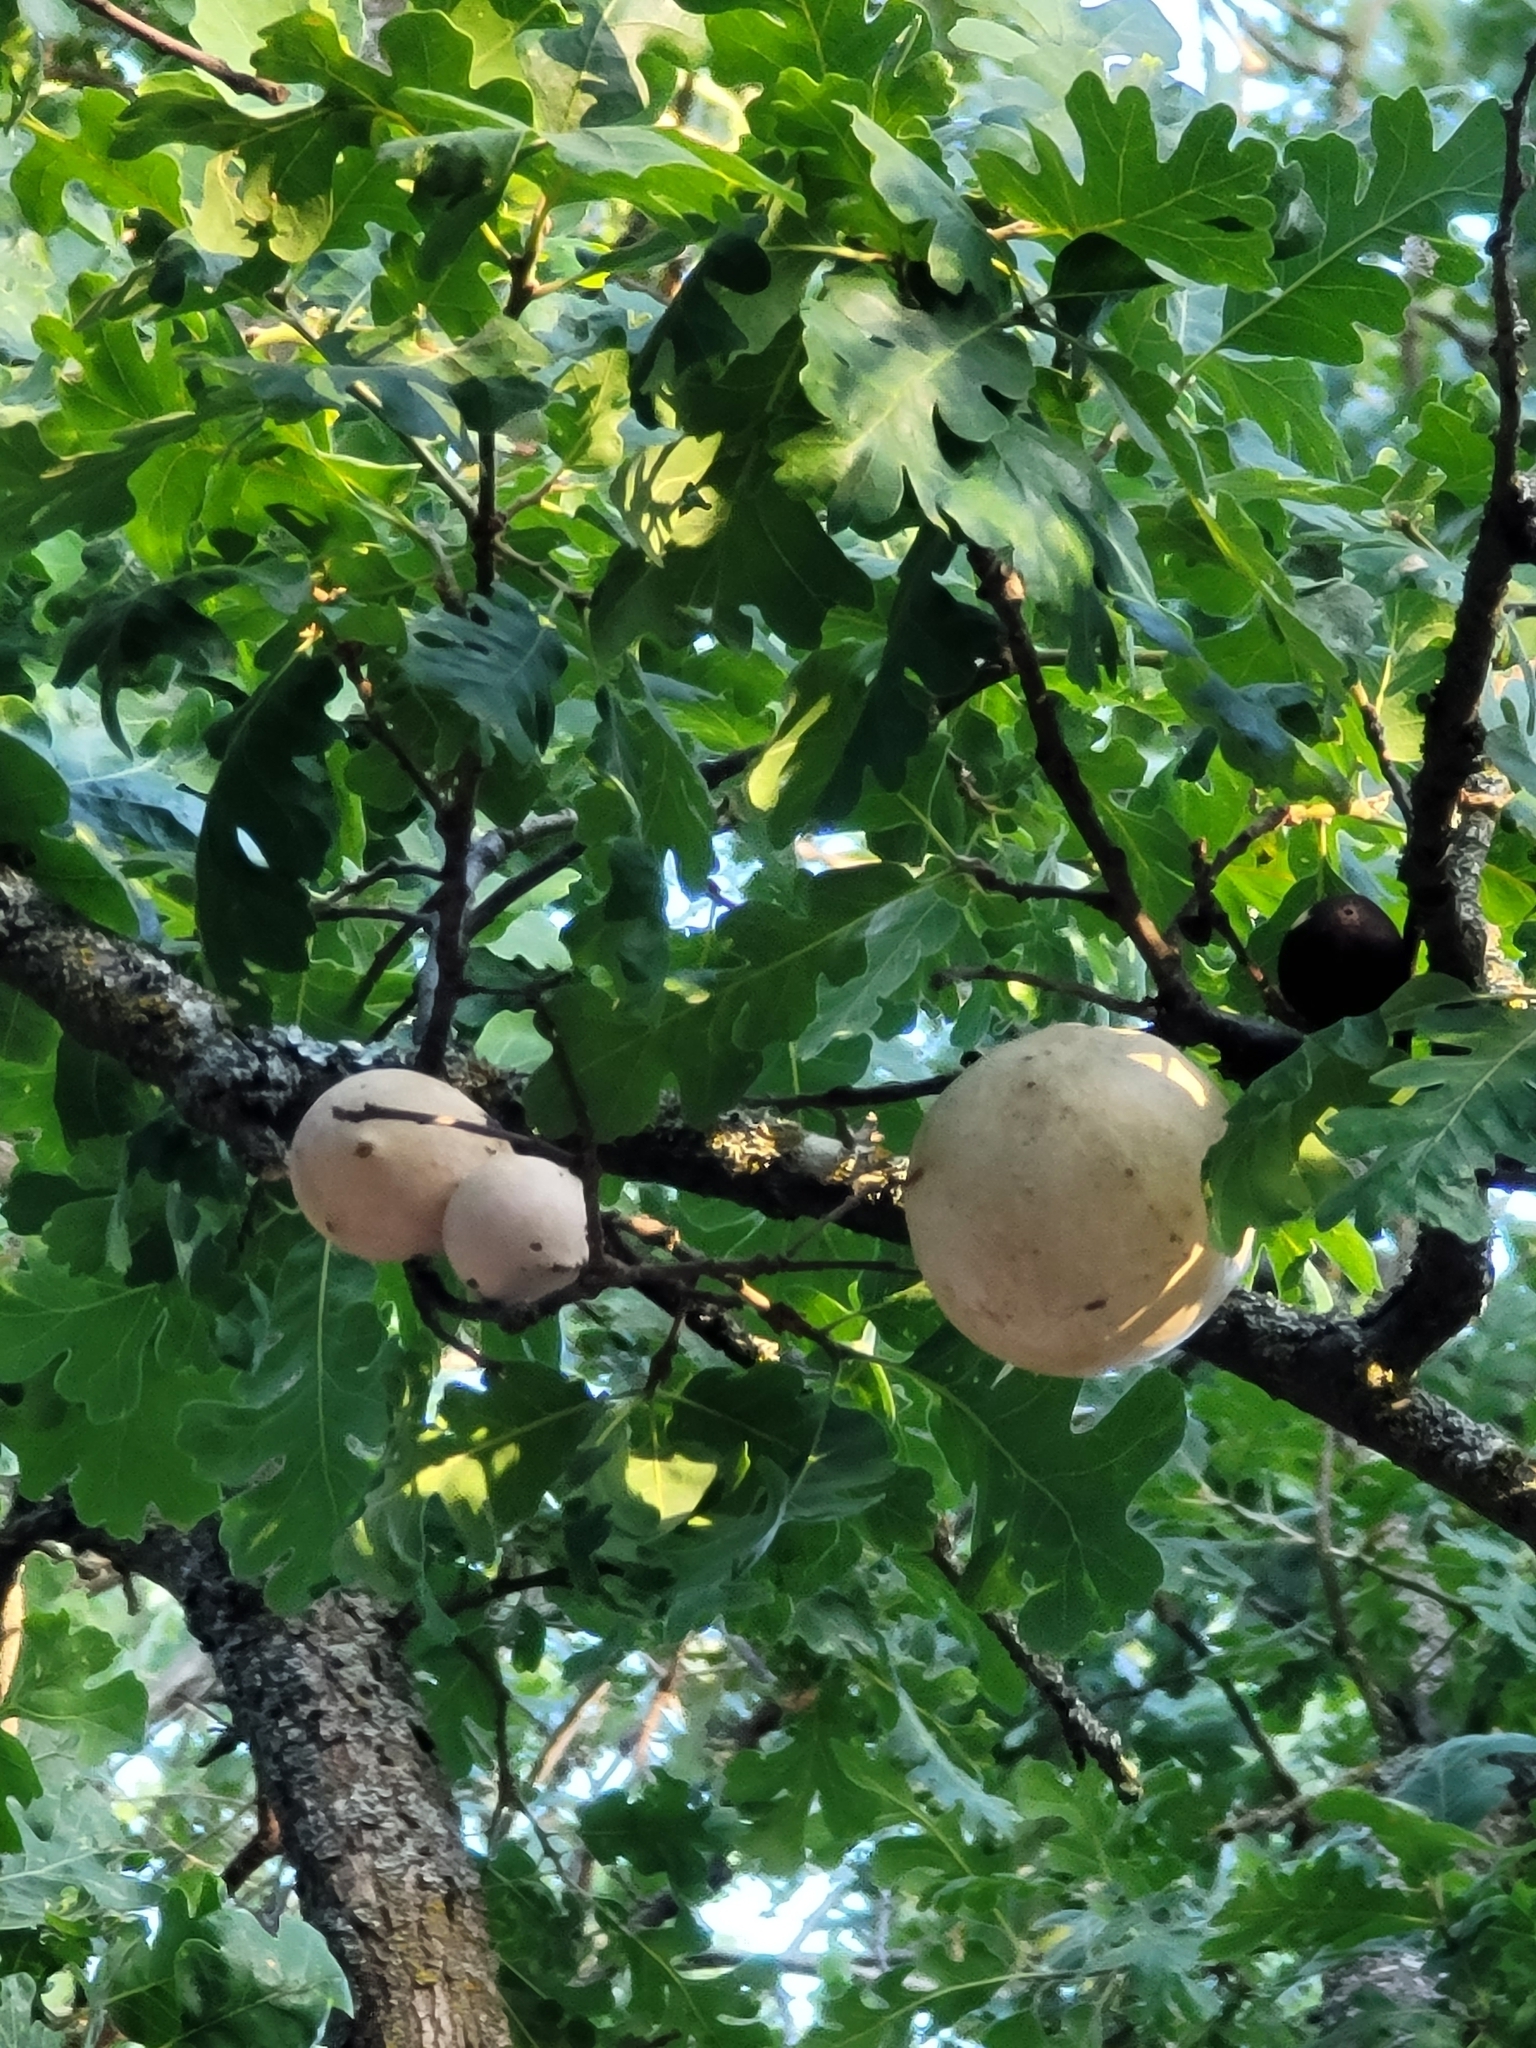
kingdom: Animalia
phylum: Arthropoda
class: Insecta
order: Hymenoptera
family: Cynipidae
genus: Andricus
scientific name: Andricus quercuscalifornicus
